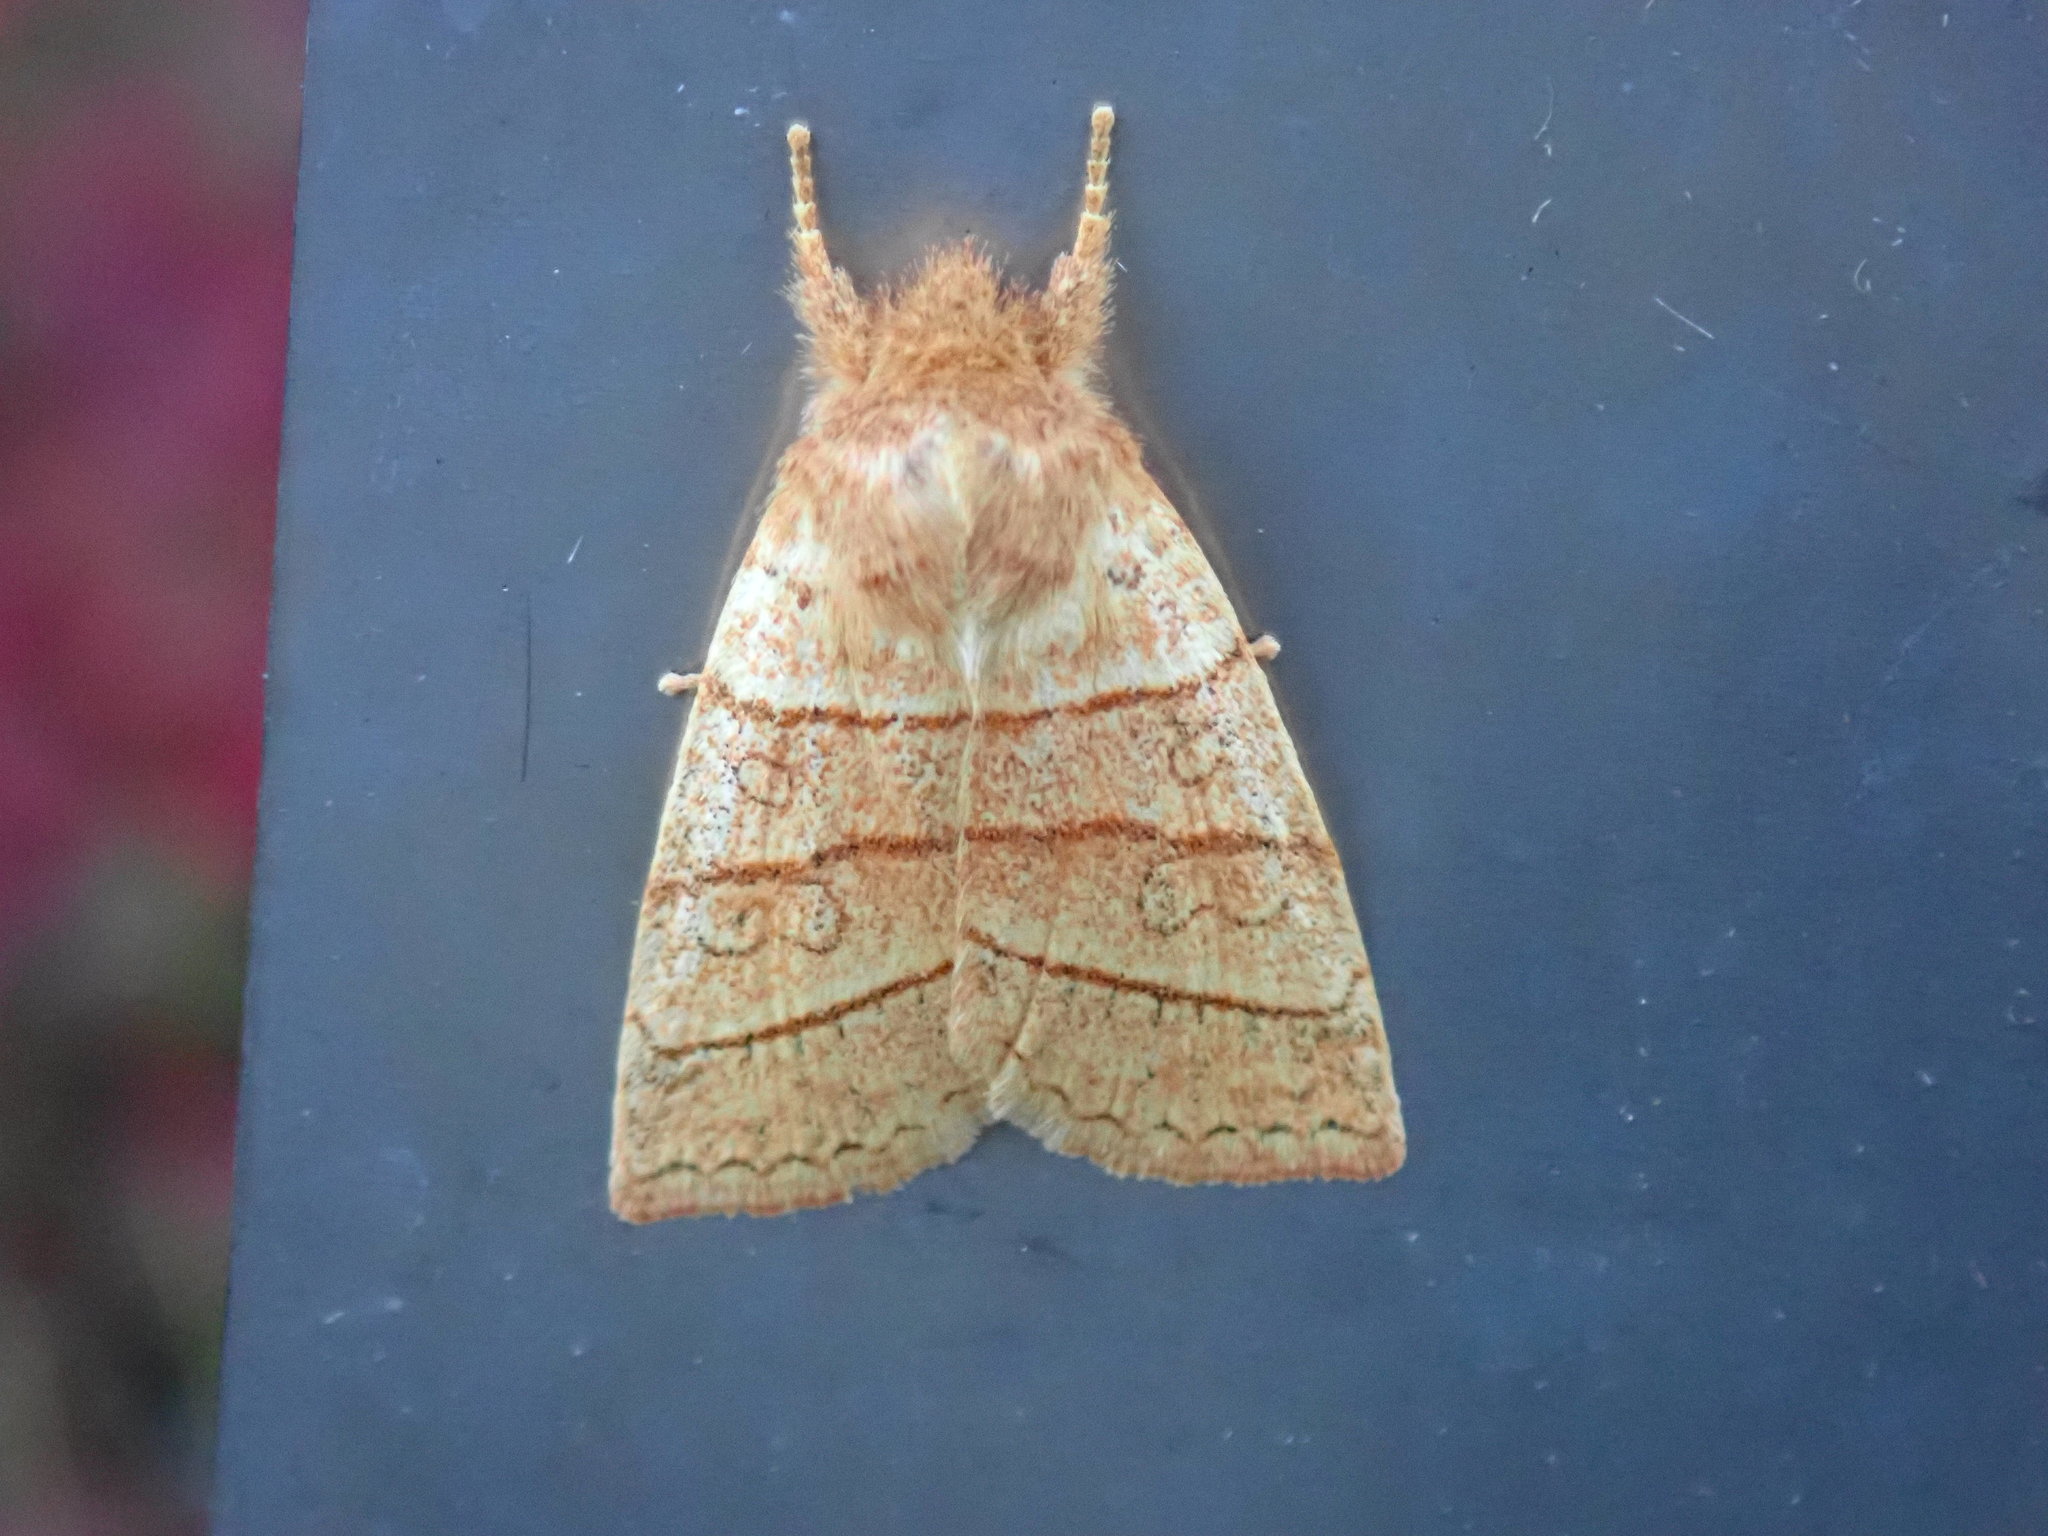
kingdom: Animalia
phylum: Arthropoda
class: Insecta
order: Lepidoptera
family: Noctuidae
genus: Pyreferra
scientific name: Pyreferra citrombra
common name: Citrine sallow
